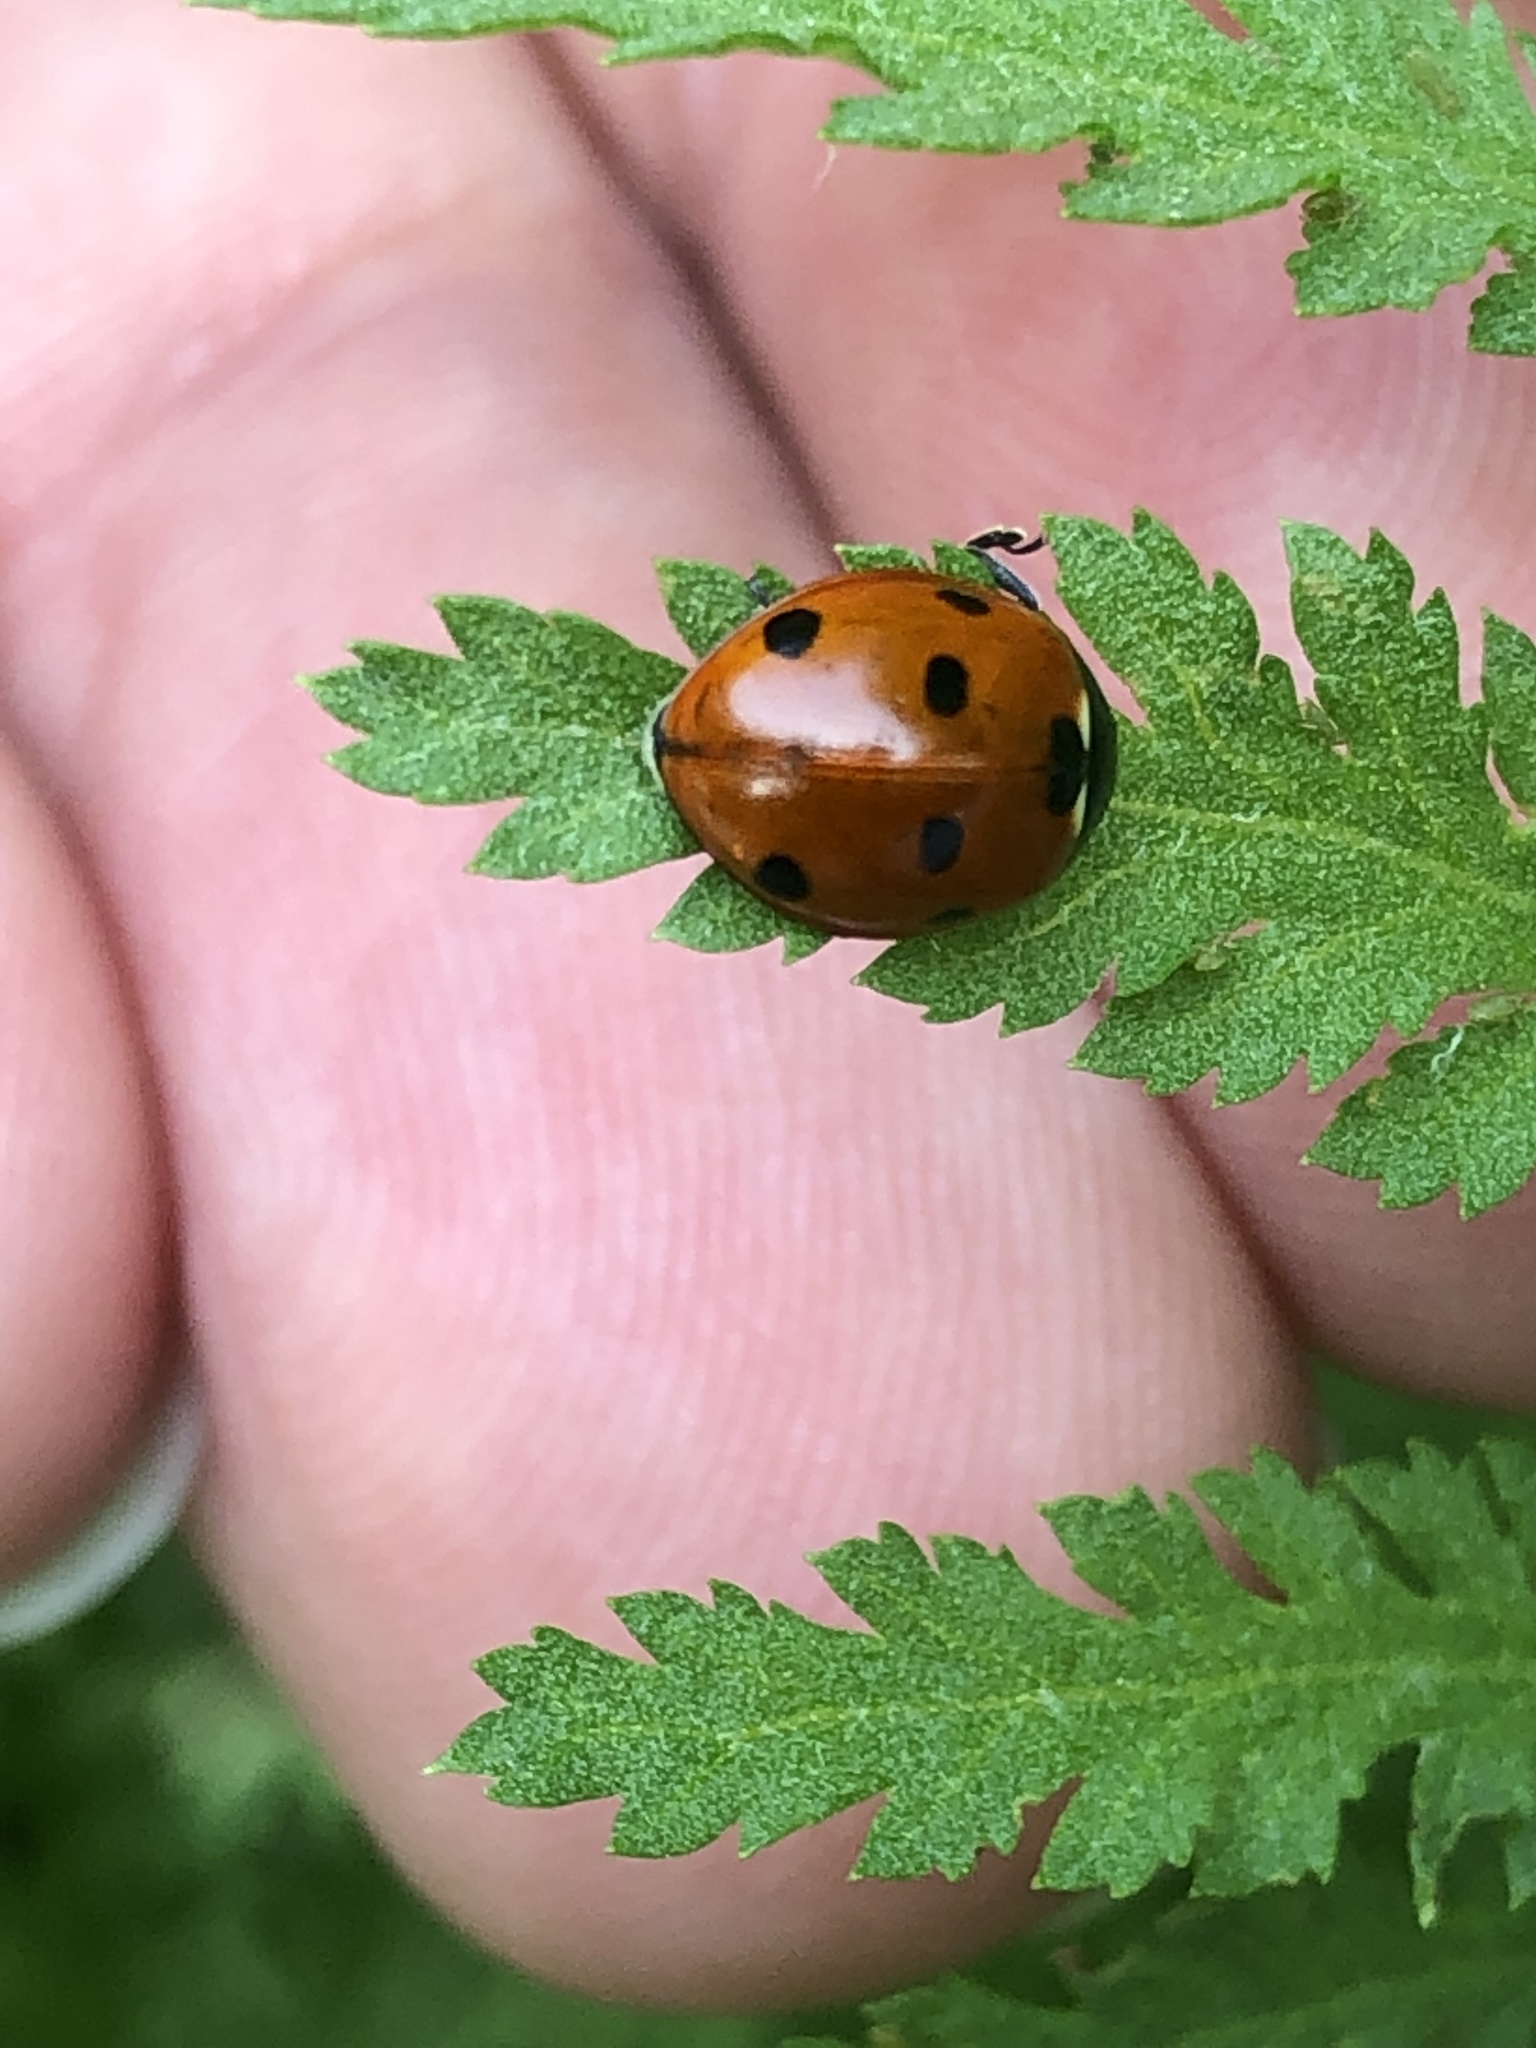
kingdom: Animalia
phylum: Arthropoda
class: Insecta
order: Coleoptera
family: Coccinellidae
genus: Coccinella
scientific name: Coccinella septempunctata
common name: Sevenspotted lady beetle
